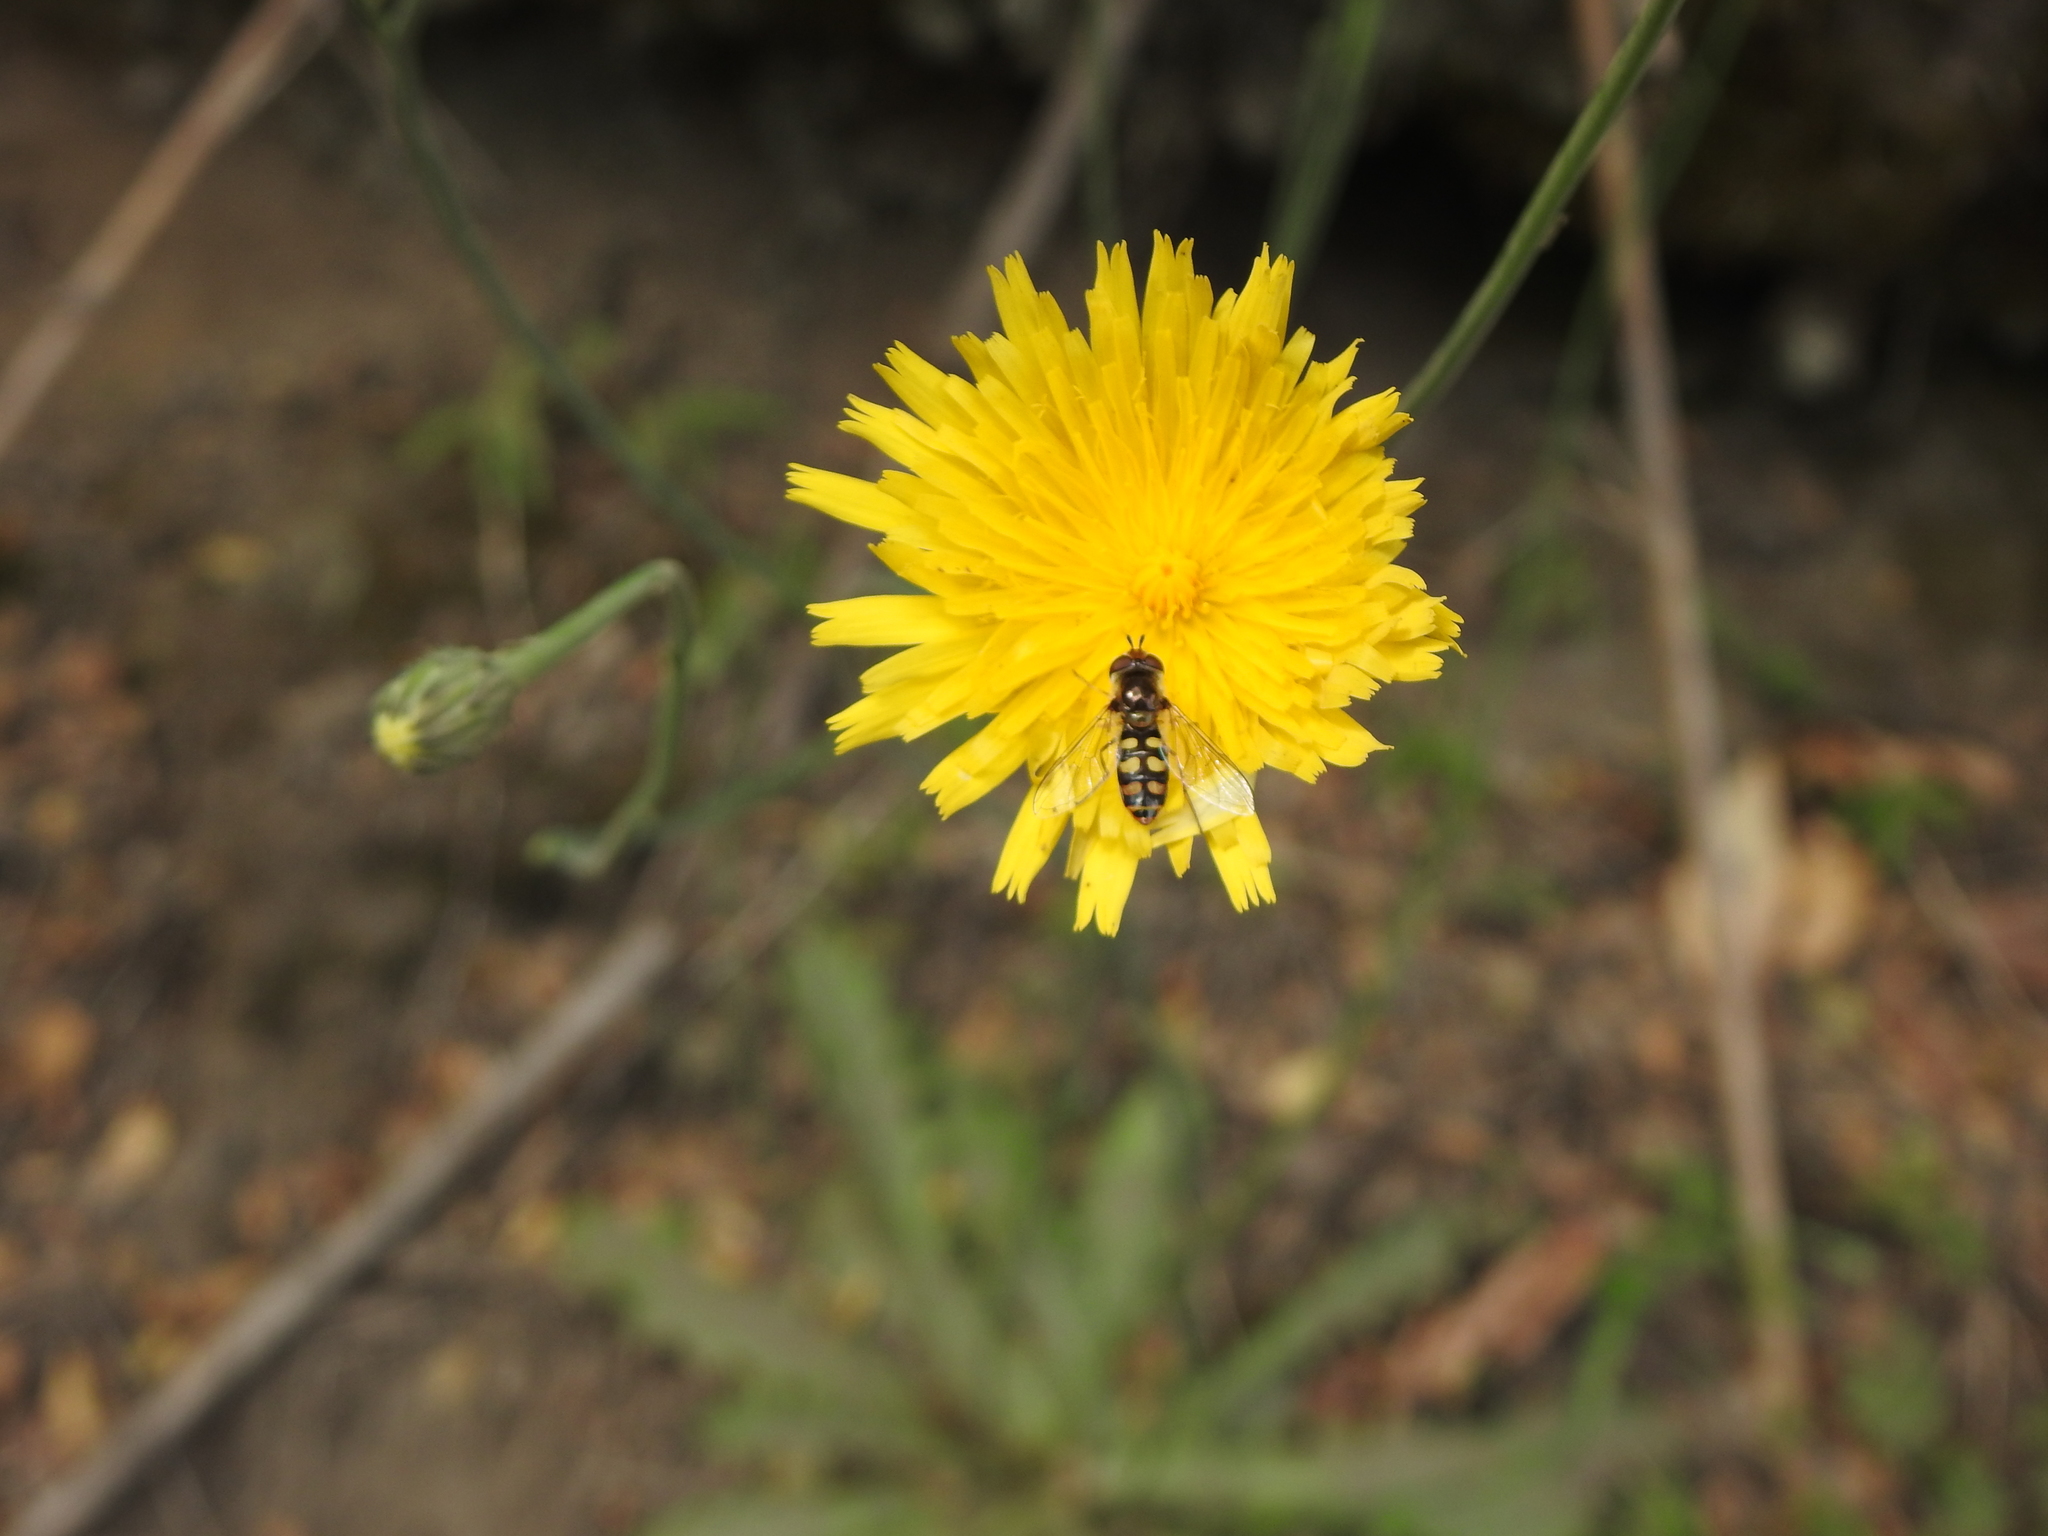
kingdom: Animalia
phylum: Arthropoda
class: Insecta
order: Diptera
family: Syrphidae
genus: Austroscaeva
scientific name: Austroscaeva occidentalis
